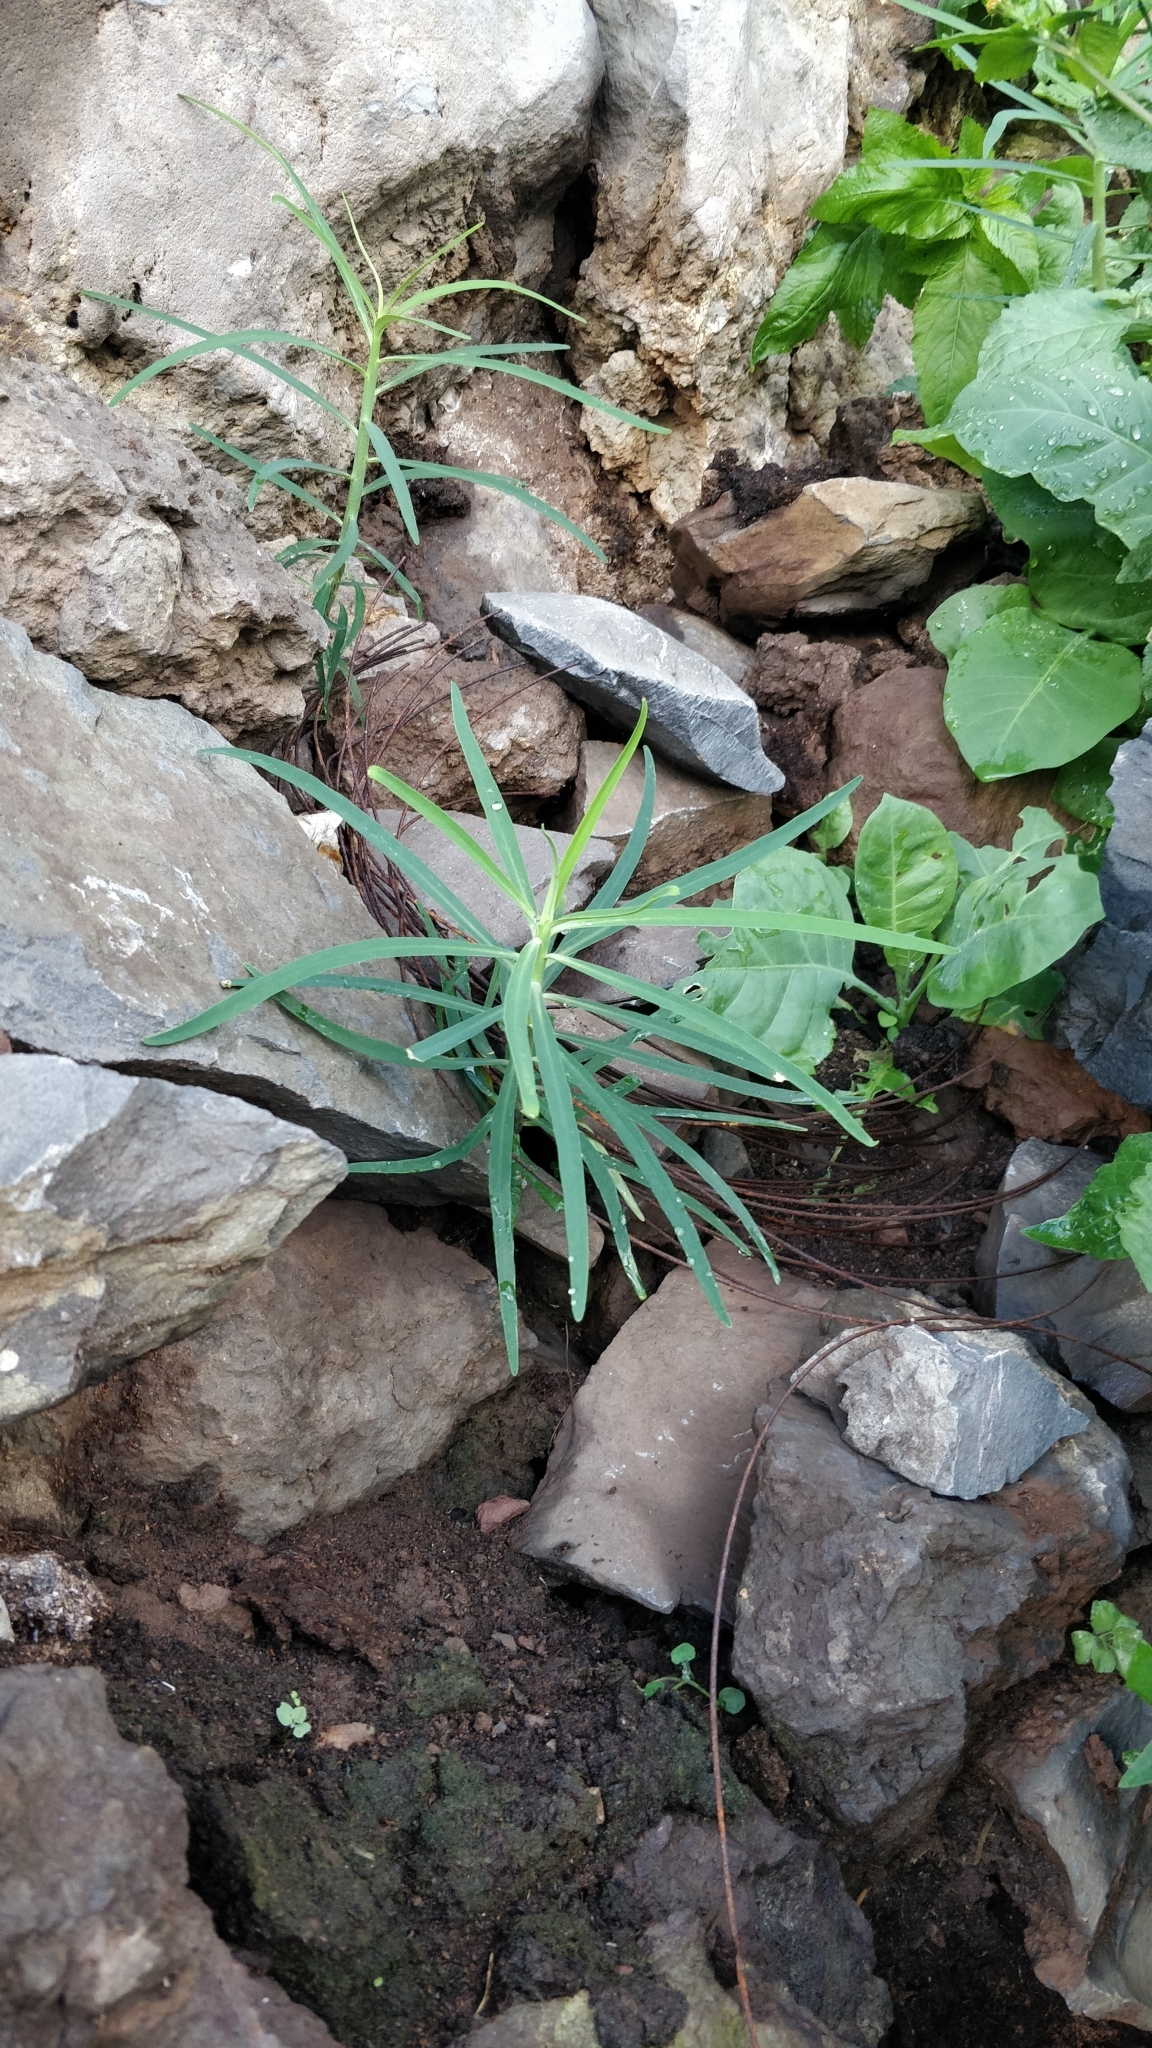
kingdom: Plantae
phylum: Tracheophyta
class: Magnoliopsida
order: Malpighiales
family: Euphorbiaceae
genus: Euphorbia
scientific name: Euphorbia piscatoria
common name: Fish-stunning spurge
